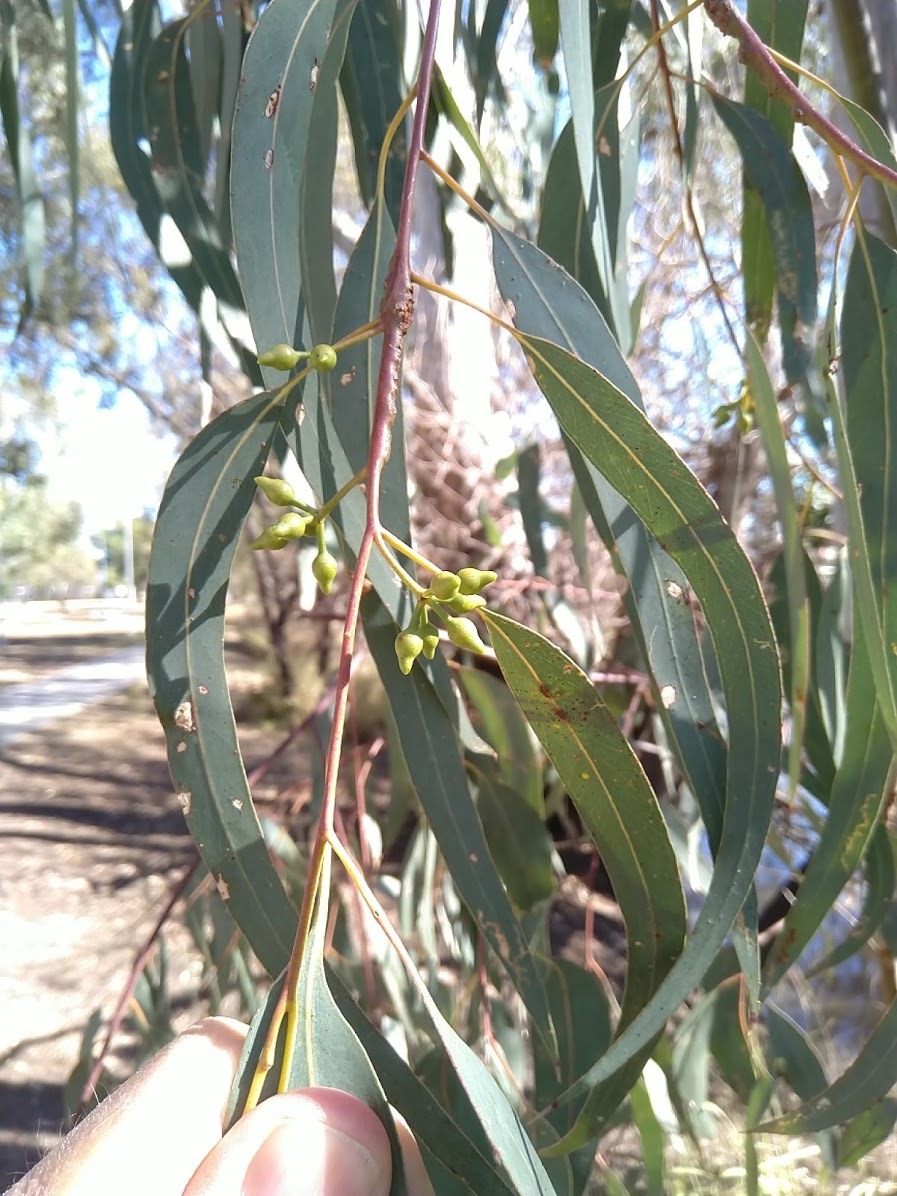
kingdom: Plantae
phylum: Tracheophyta
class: Magnoliopsida
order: Myrtales
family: Myrtaceae
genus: Eucalyptus
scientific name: Eucalyptus camaldulensis
